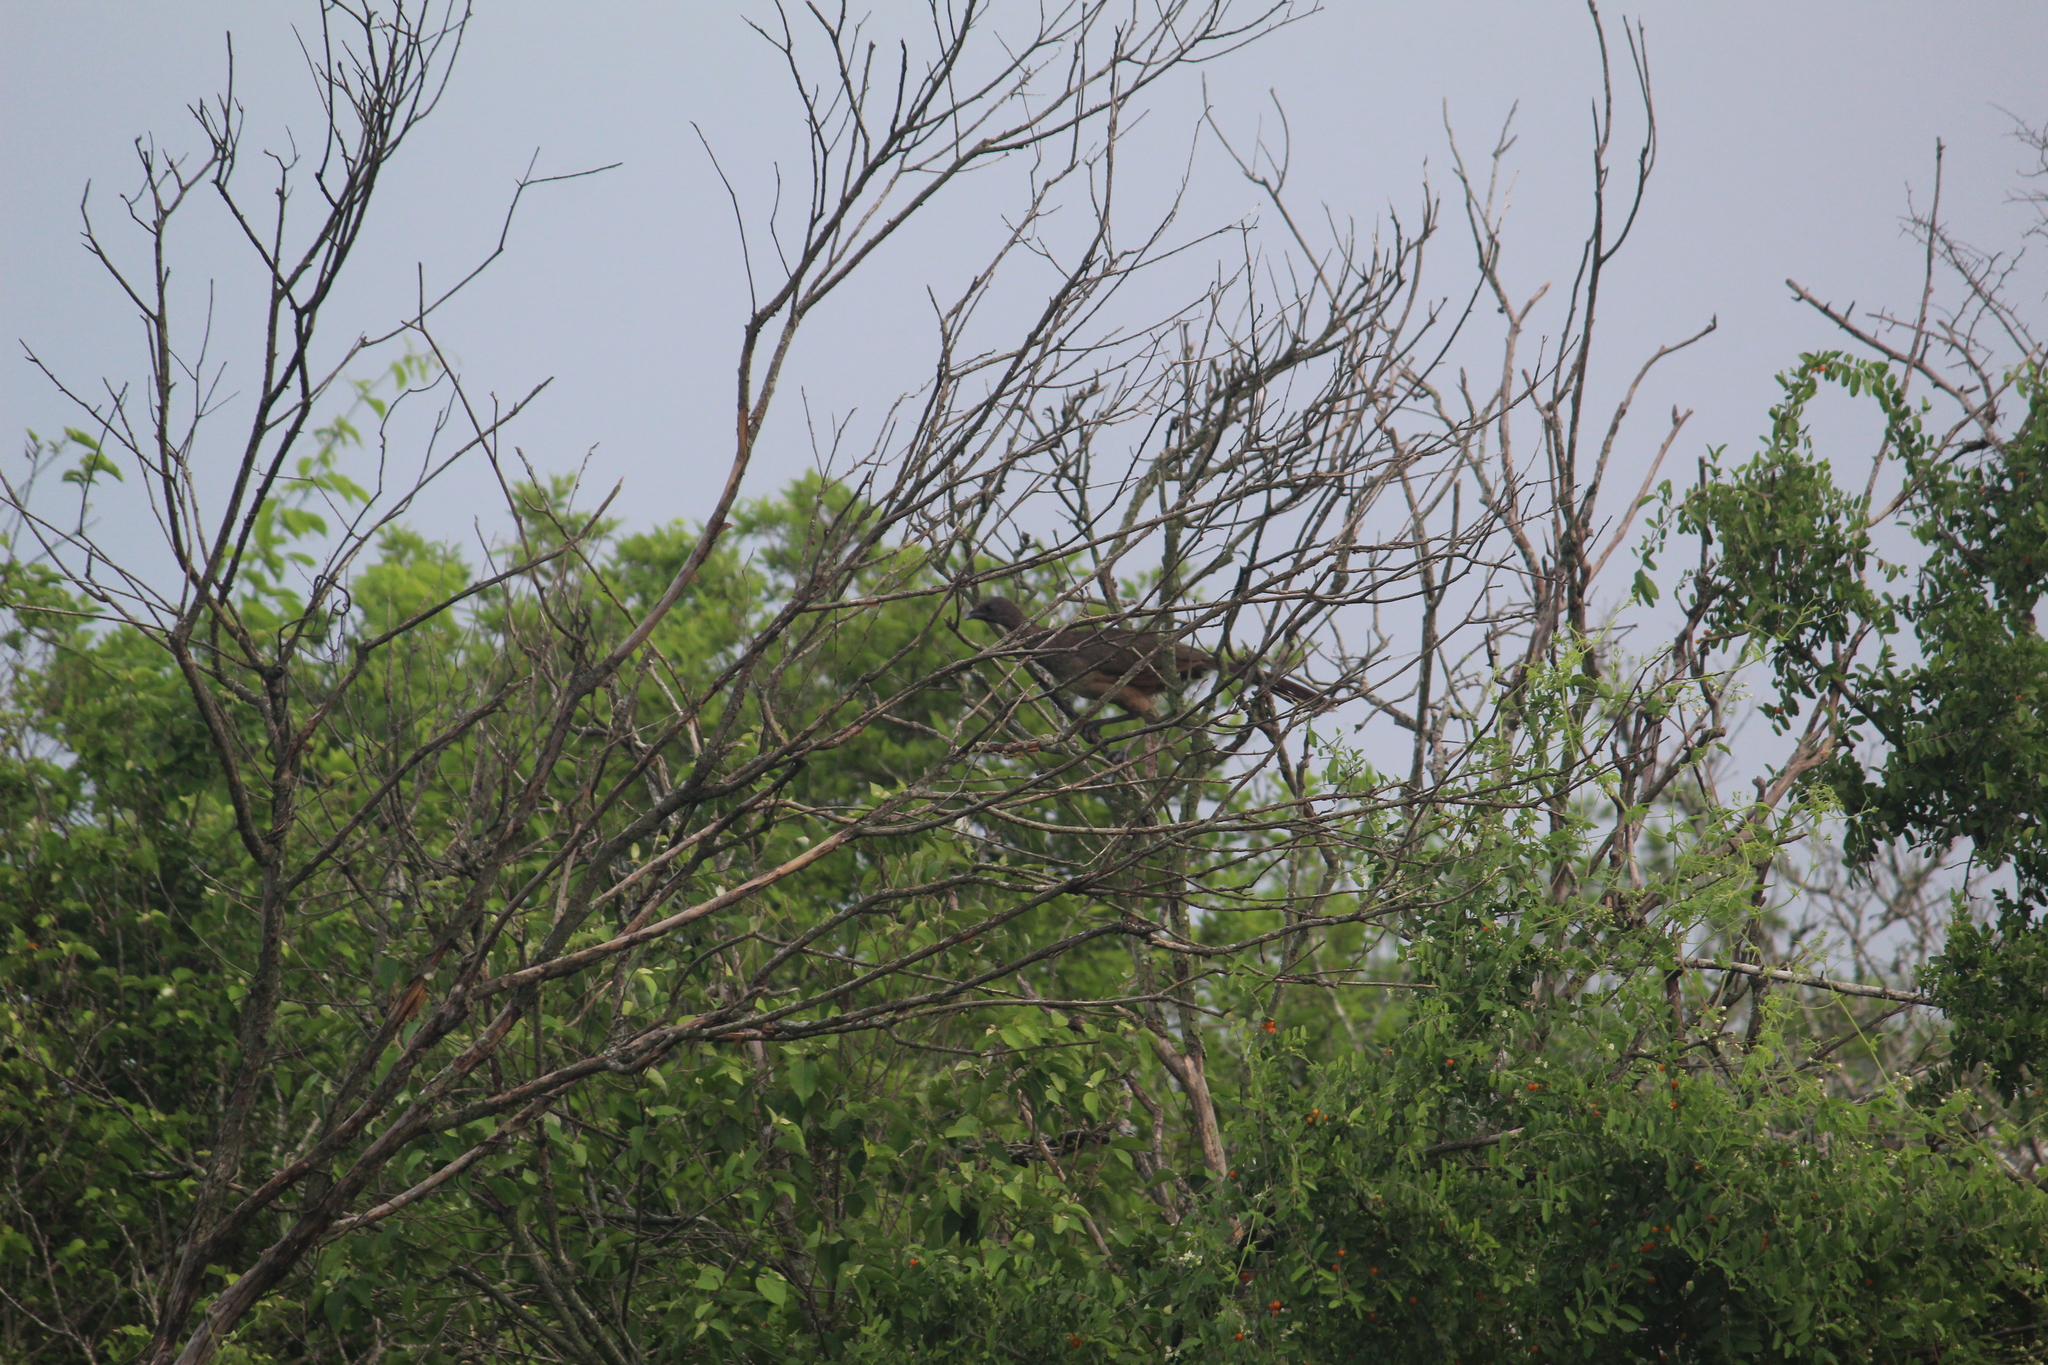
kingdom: Animalia
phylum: Chordata
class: Aves
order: Galliformes
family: Cracidae
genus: Ortalis
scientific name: Ortalis vetula
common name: Plain chachalaca
